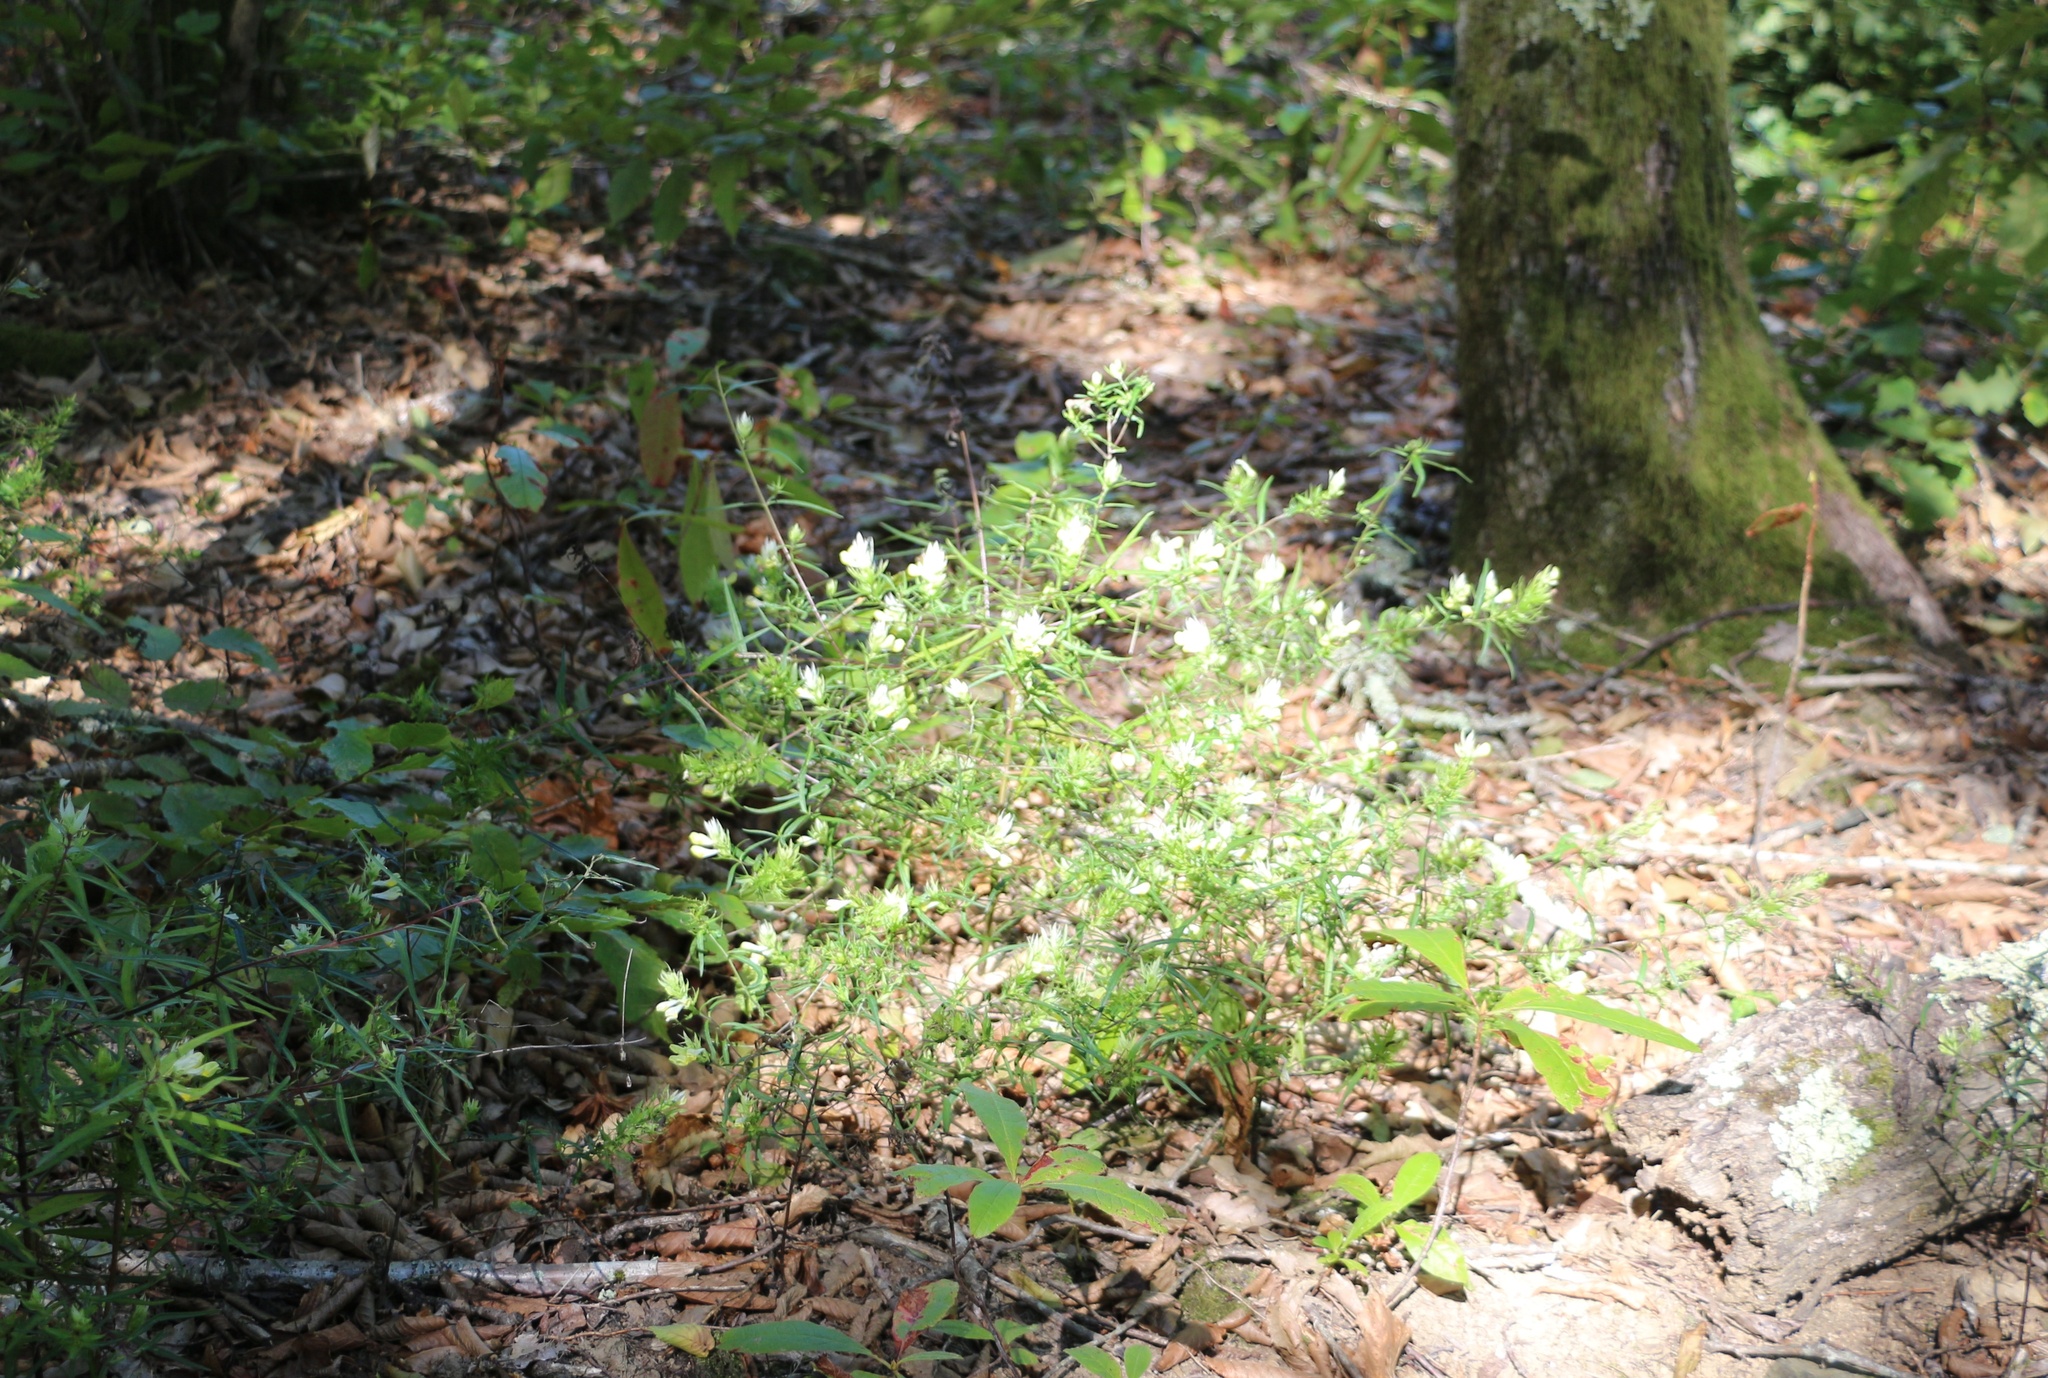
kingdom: Plantae
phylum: Tracheophyta
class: Magnoliopsida
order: Lamiales
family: Orobanchaceae
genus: Melampyrum
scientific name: Melampyrum arvense
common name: Field cow-wheat
